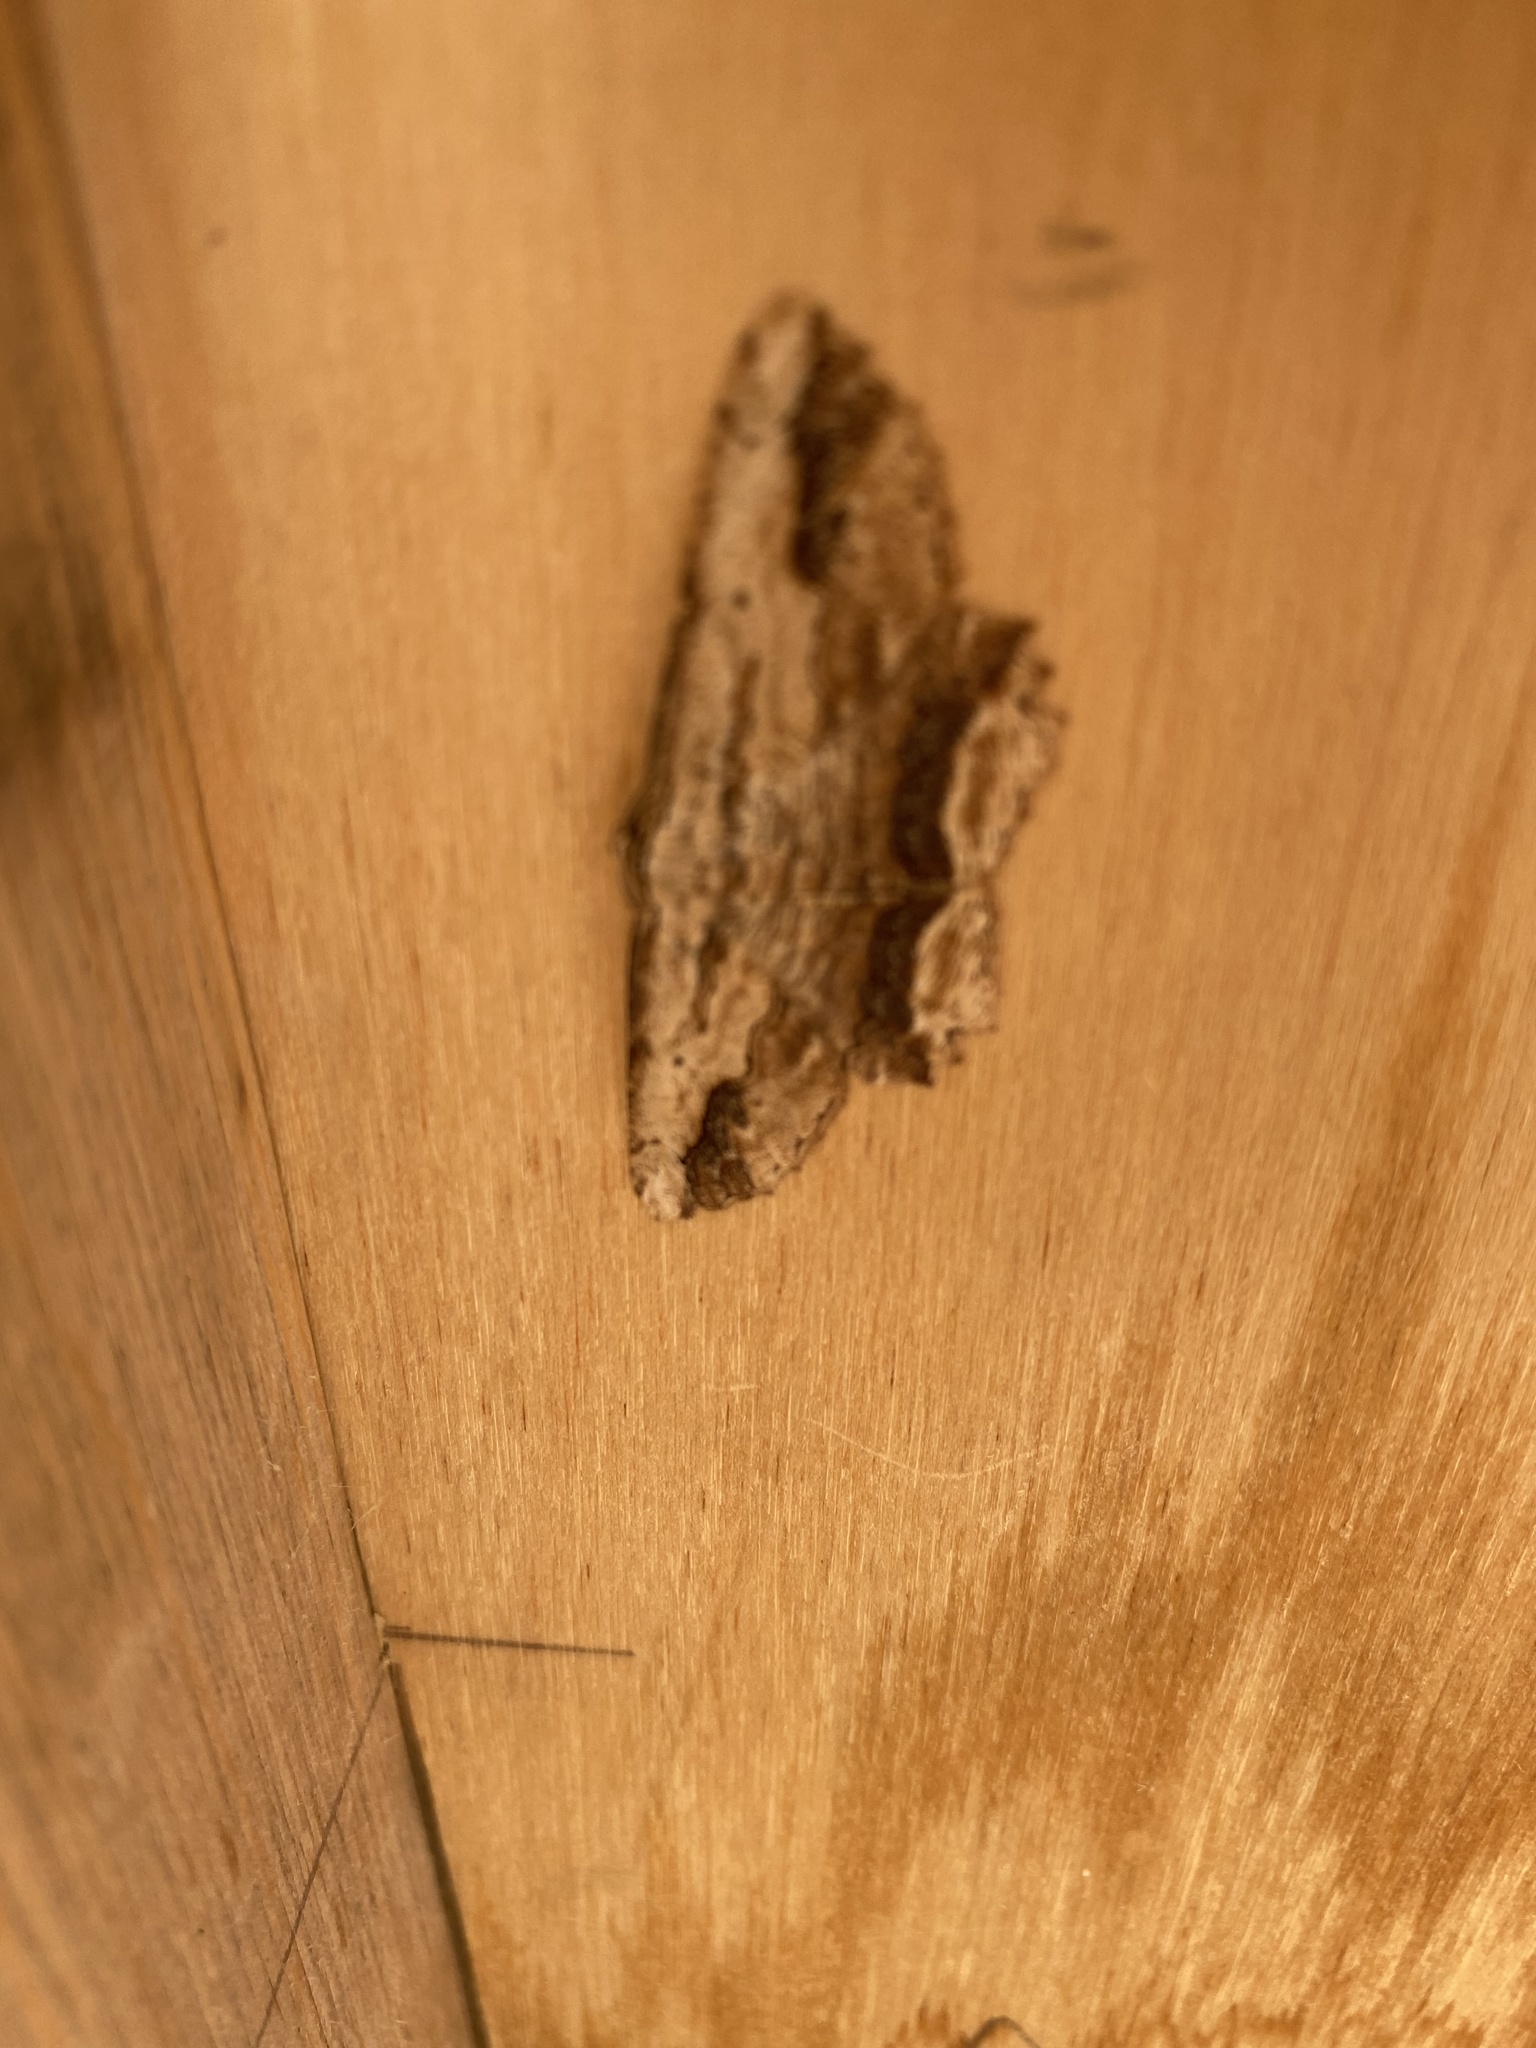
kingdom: Animalia
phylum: Arthropoda
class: Insecta
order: Lepidoptera
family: Geometridae
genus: Menophra
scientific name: Menophra abruptaria
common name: Waved umber
